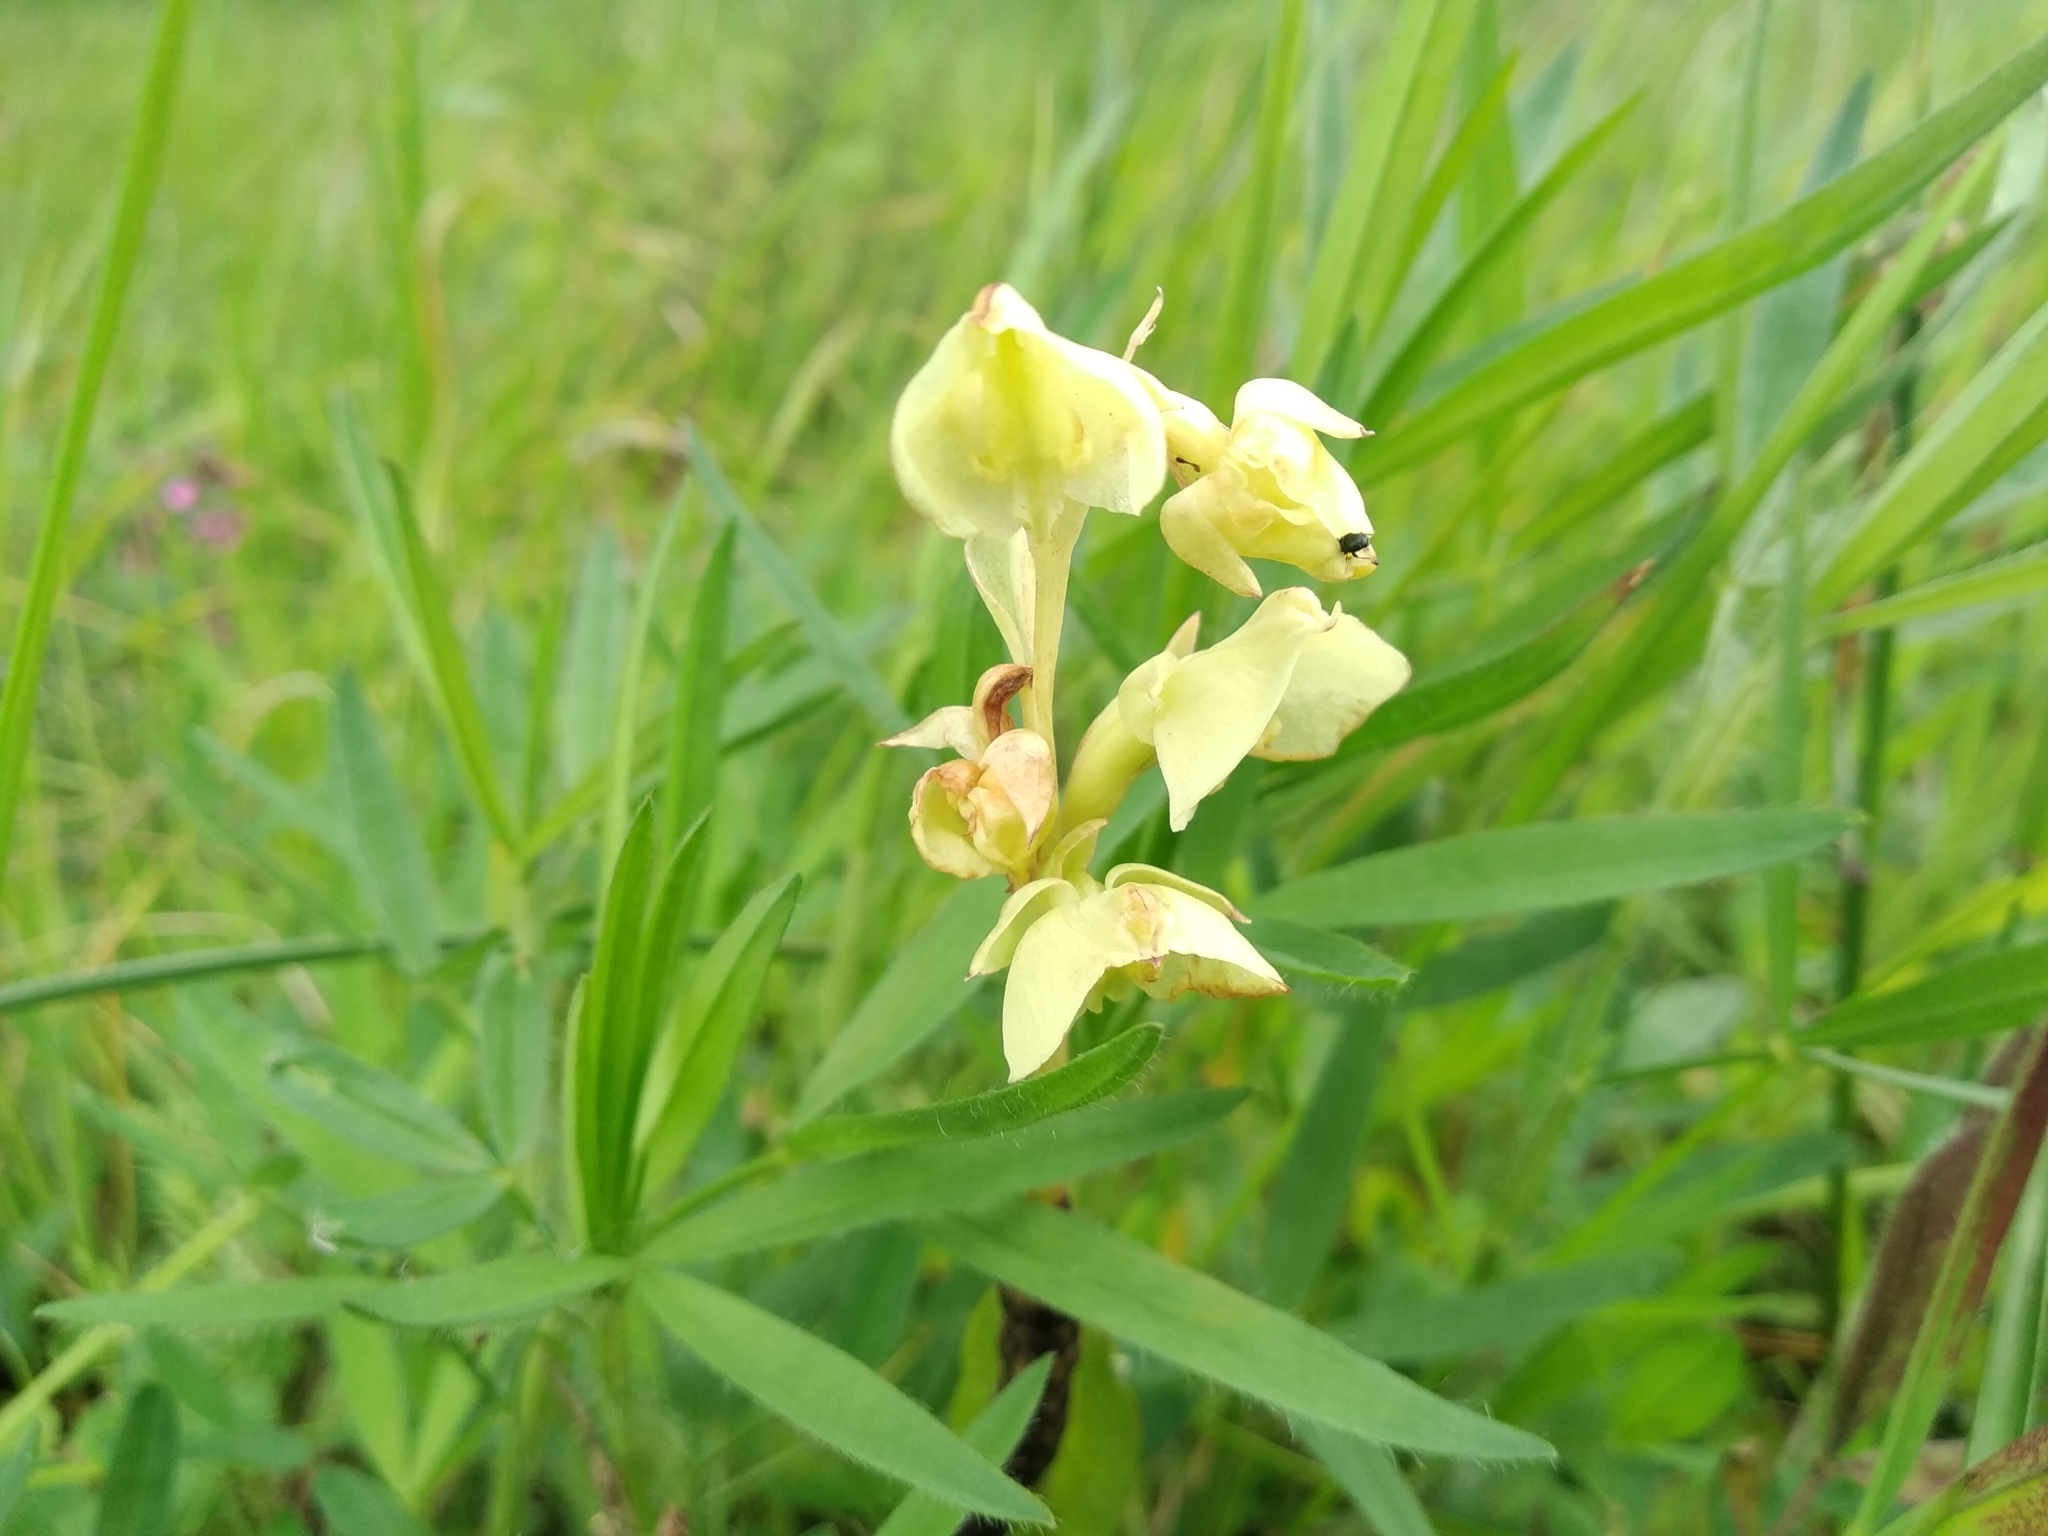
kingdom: Plantae
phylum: Tracheophyta
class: Liliopsida
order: Asparagales
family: Orchidaceae
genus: Pterygodium
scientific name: Pterygodium catholicum
